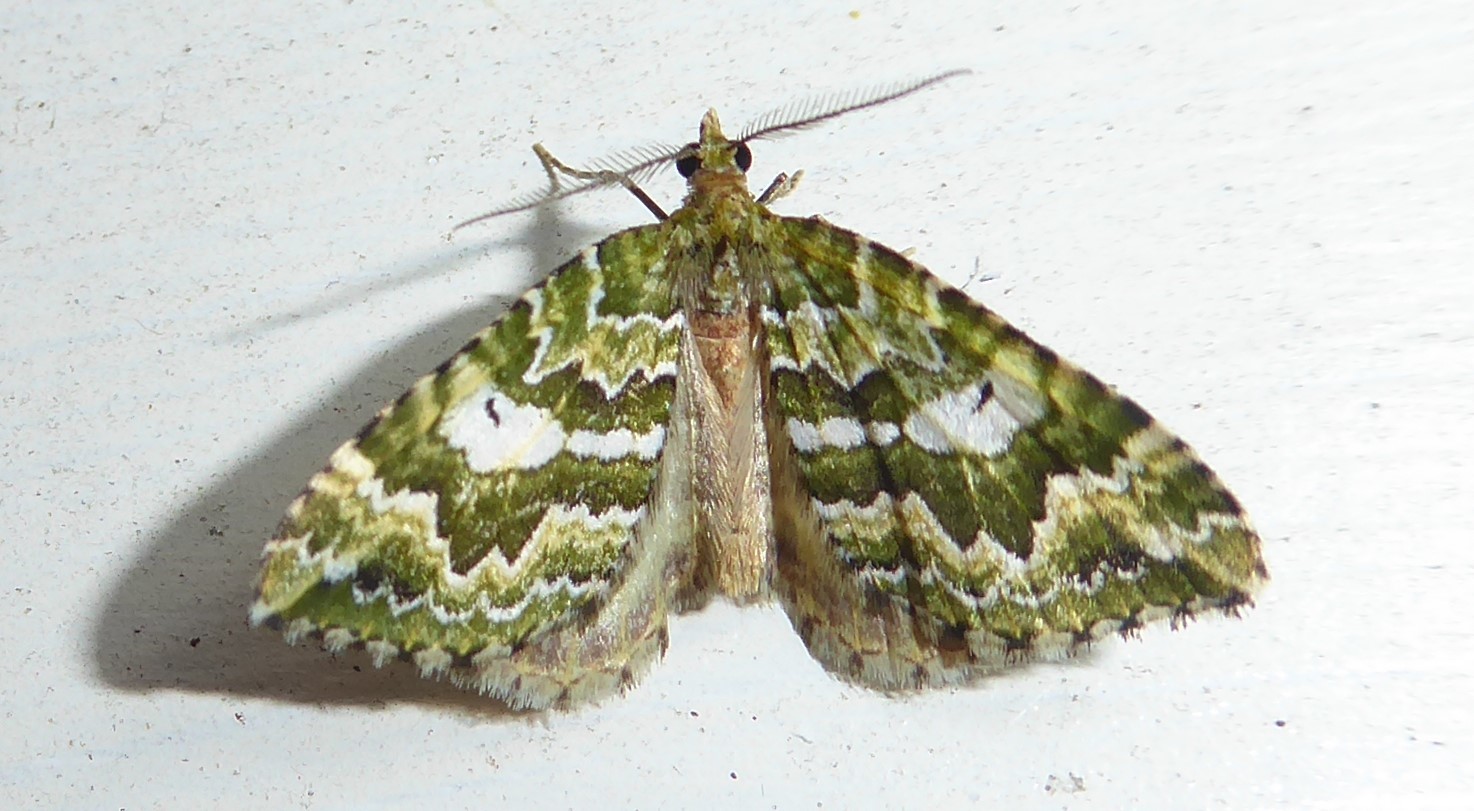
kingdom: Animalia
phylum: Arthropoda
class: Insecta
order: Lepidoptera
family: Geometridae
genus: Asaphodes
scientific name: Asaphodes beata
